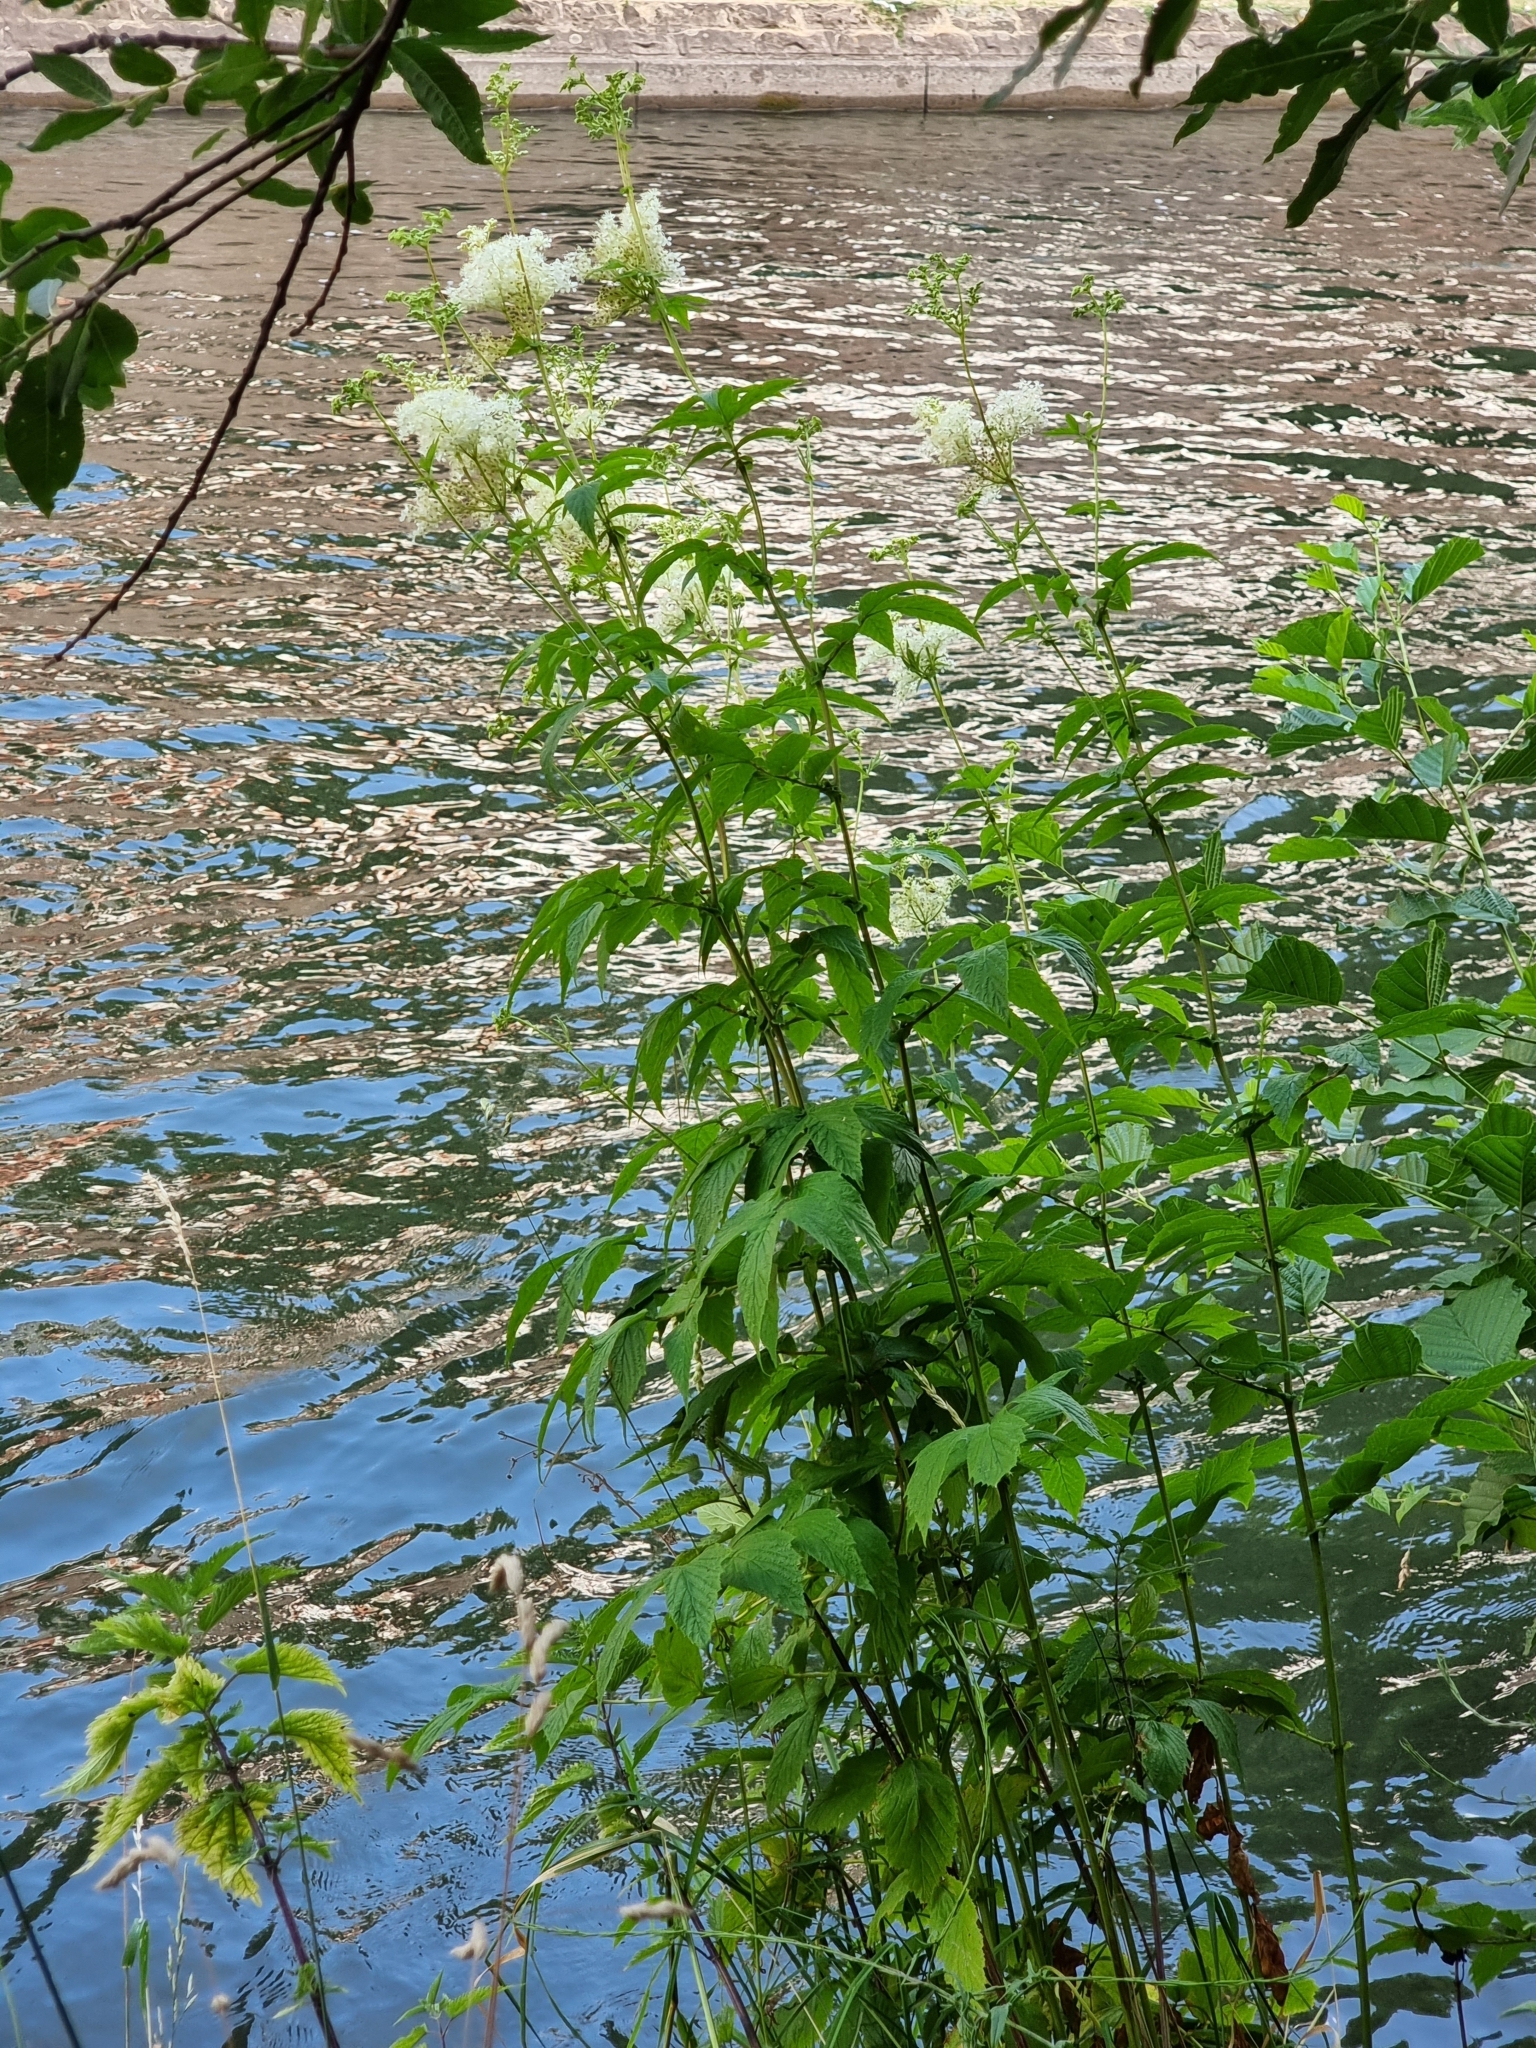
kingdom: Plantae
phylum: Tracheophyta
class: Magnoliopsida
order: Rosales
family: Rosaceae
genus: Filipendula
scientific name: Filipendula ulmaria
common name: Meadowsweet
